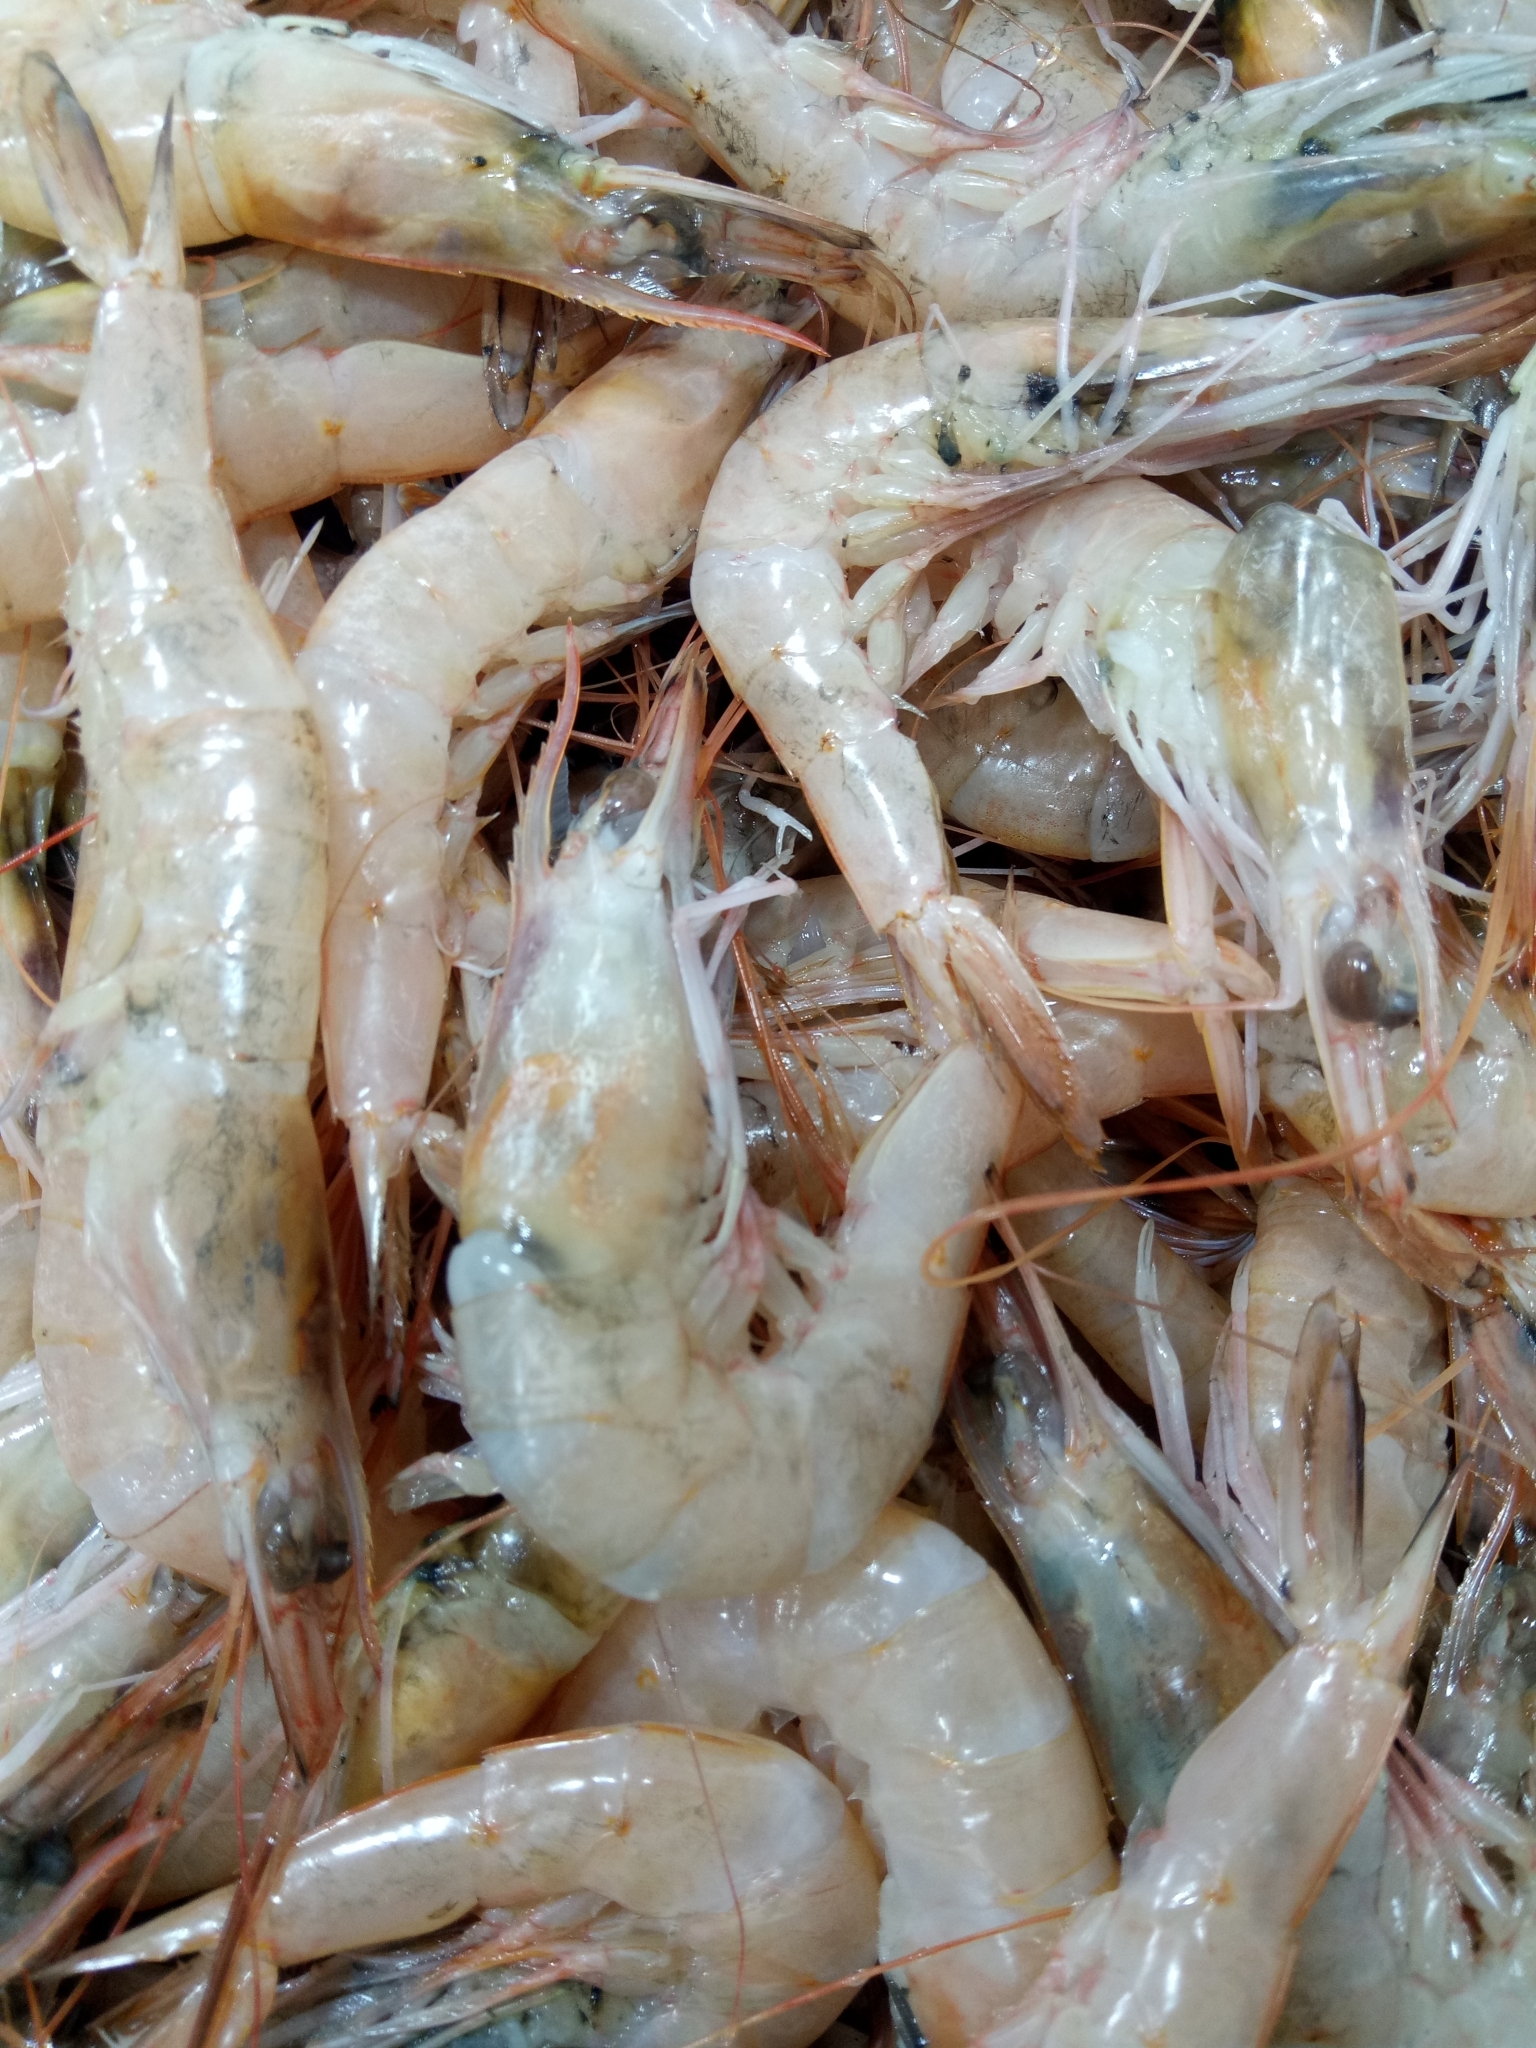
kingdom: Animalia
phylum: Arthropoda
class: Malacostraca
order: Decapoda
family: Penaeidae
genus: Parapenaeus
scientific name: Parapenaeus longirostris
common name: Deep-water rose shrimp
